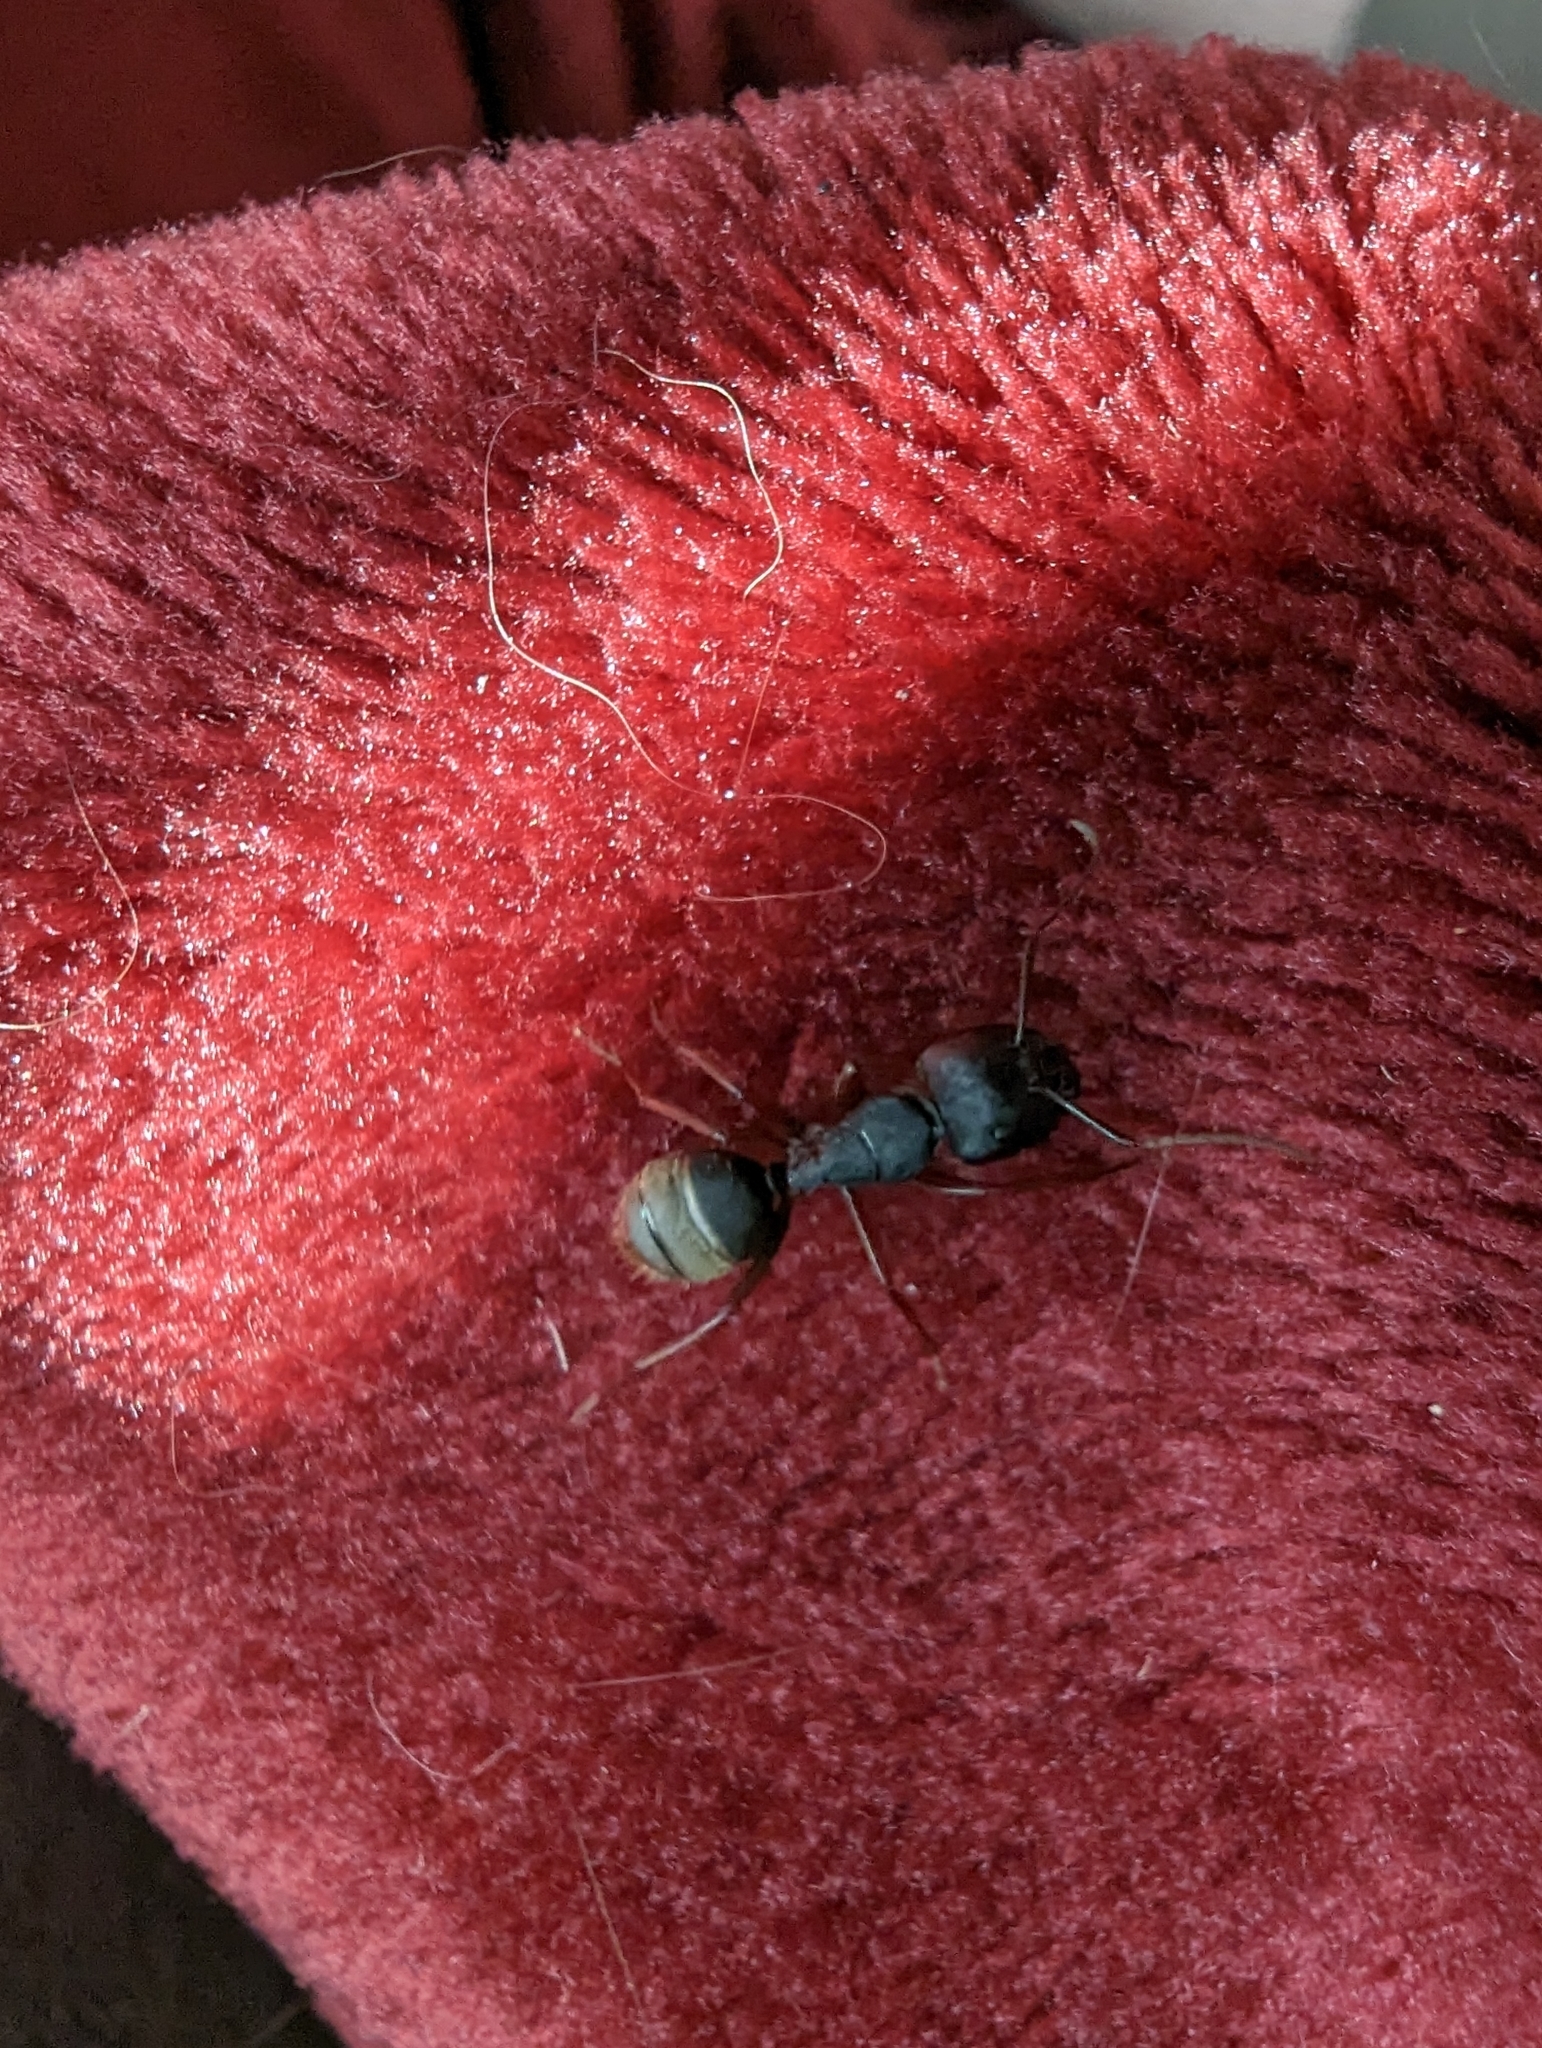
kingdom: Animalia
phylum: Arthropoda
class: Insecta
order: Hymenoptera
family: Formicidae
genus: Camponotus
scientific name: Camponotus modoc
